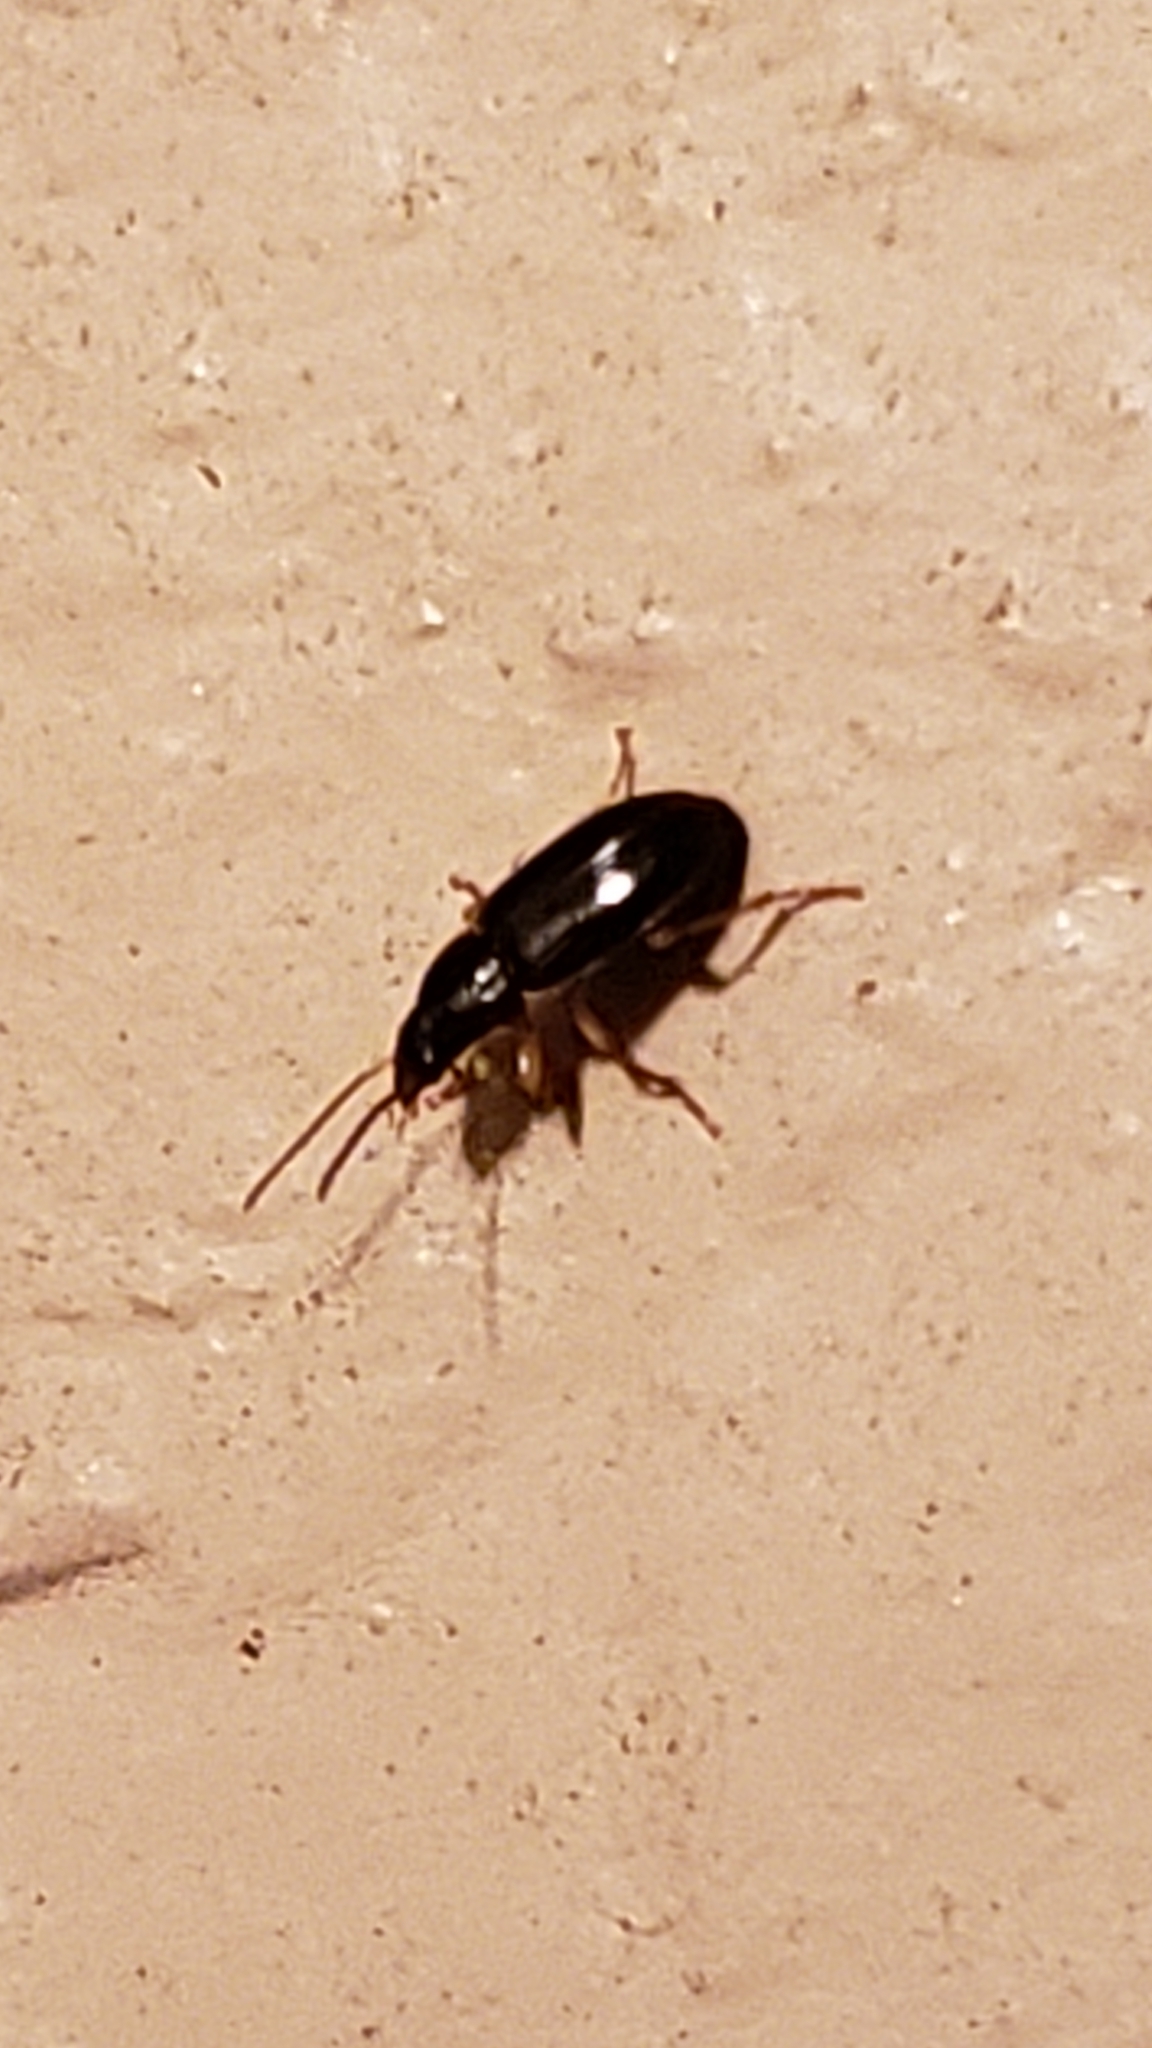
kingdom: Animalia
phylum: Arthropoda
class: Insecta
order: Coleoptera
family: Carabidae
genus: Stenolophus
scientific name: Stenolophus ochropezus
